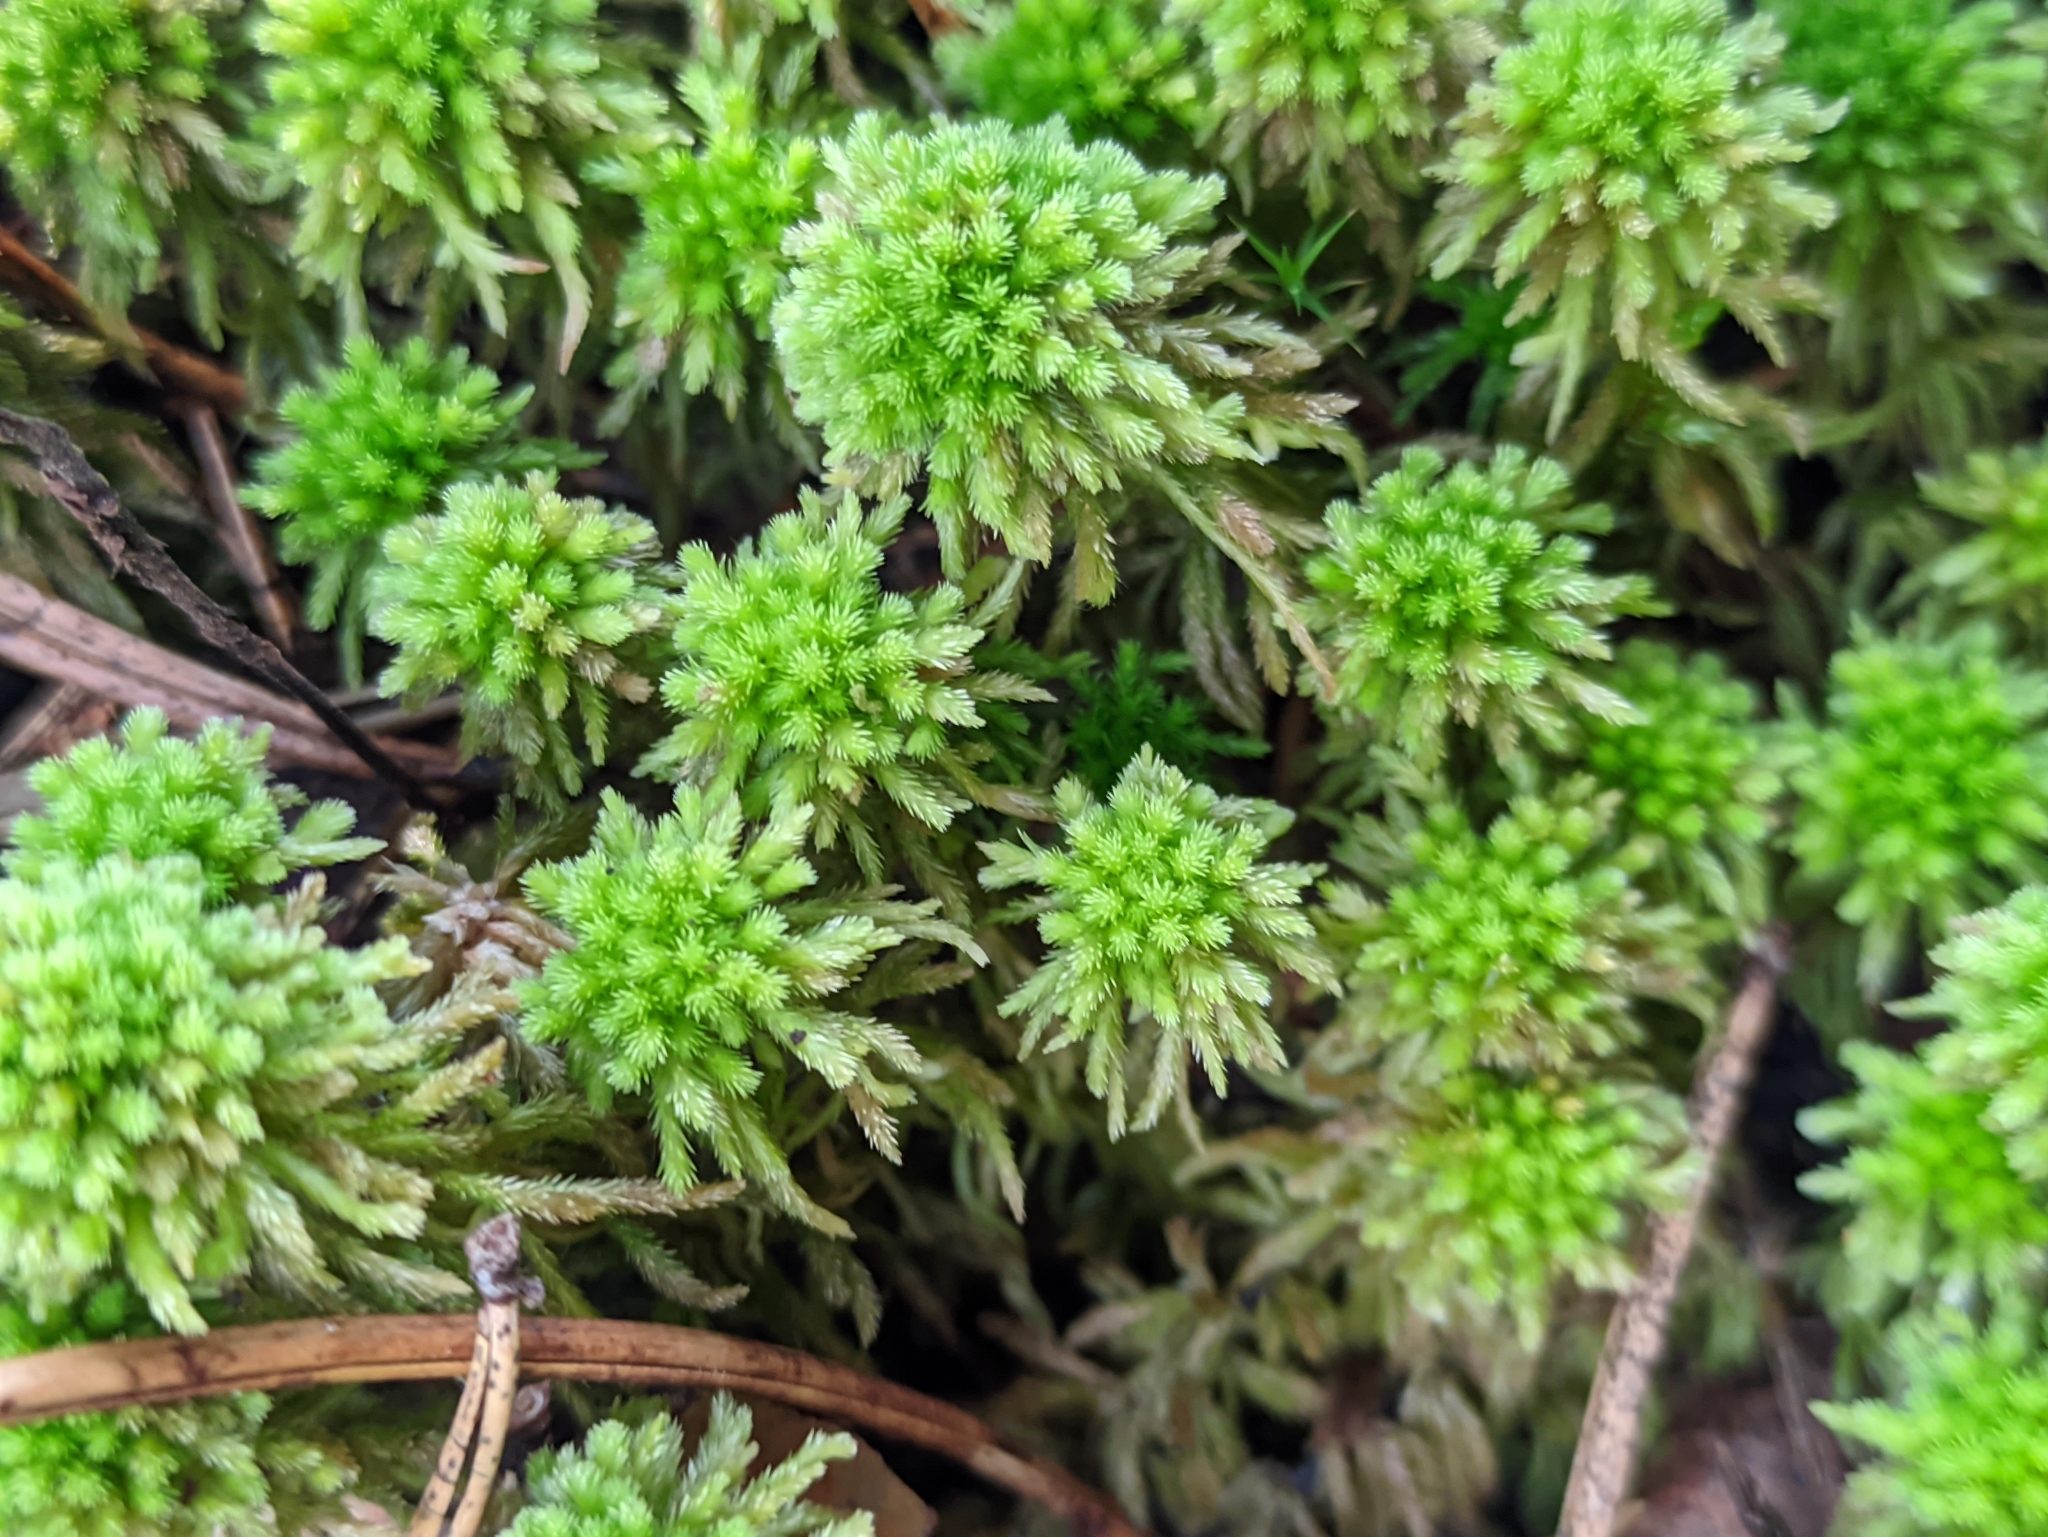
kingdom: Plantae
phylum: Bryophyta
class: Sphagnopsida
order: Sphagnales
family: Sphagnaceae
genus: Sphagnum
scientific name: Sphagnum wulfianum
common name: Wulf's peat moss
